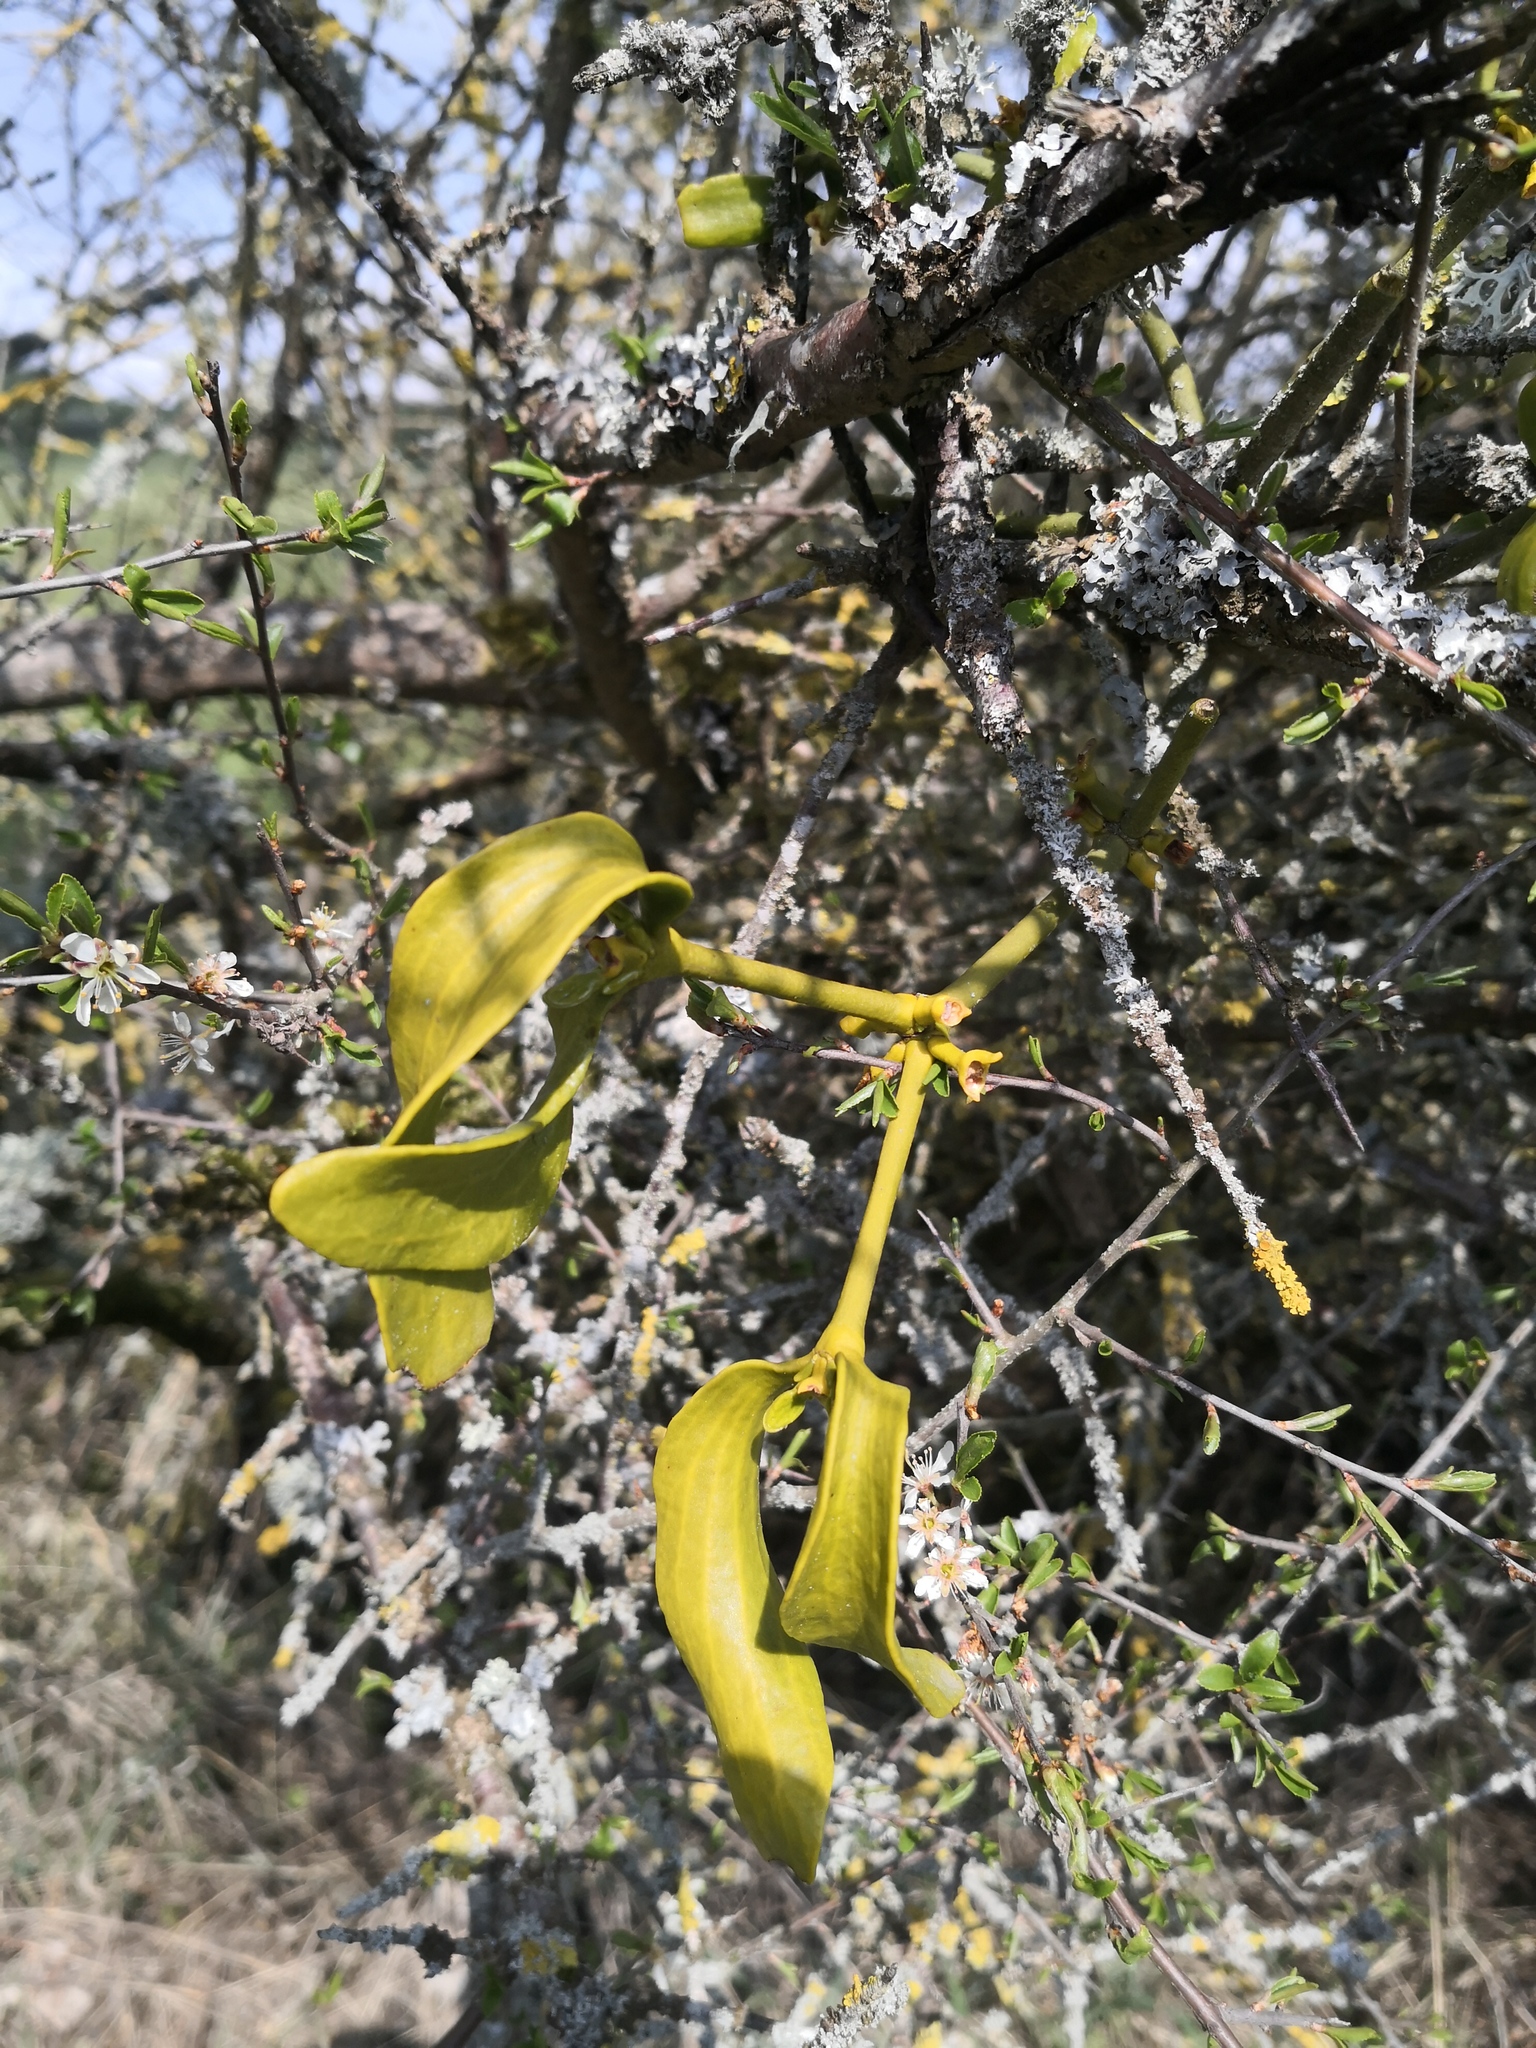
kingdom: Plantae
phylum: Tracheophyta
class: Magnoliopsida
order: Santalales
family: Viscaceae
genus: Viscum
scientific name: Viscum album
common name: Mistletoe
